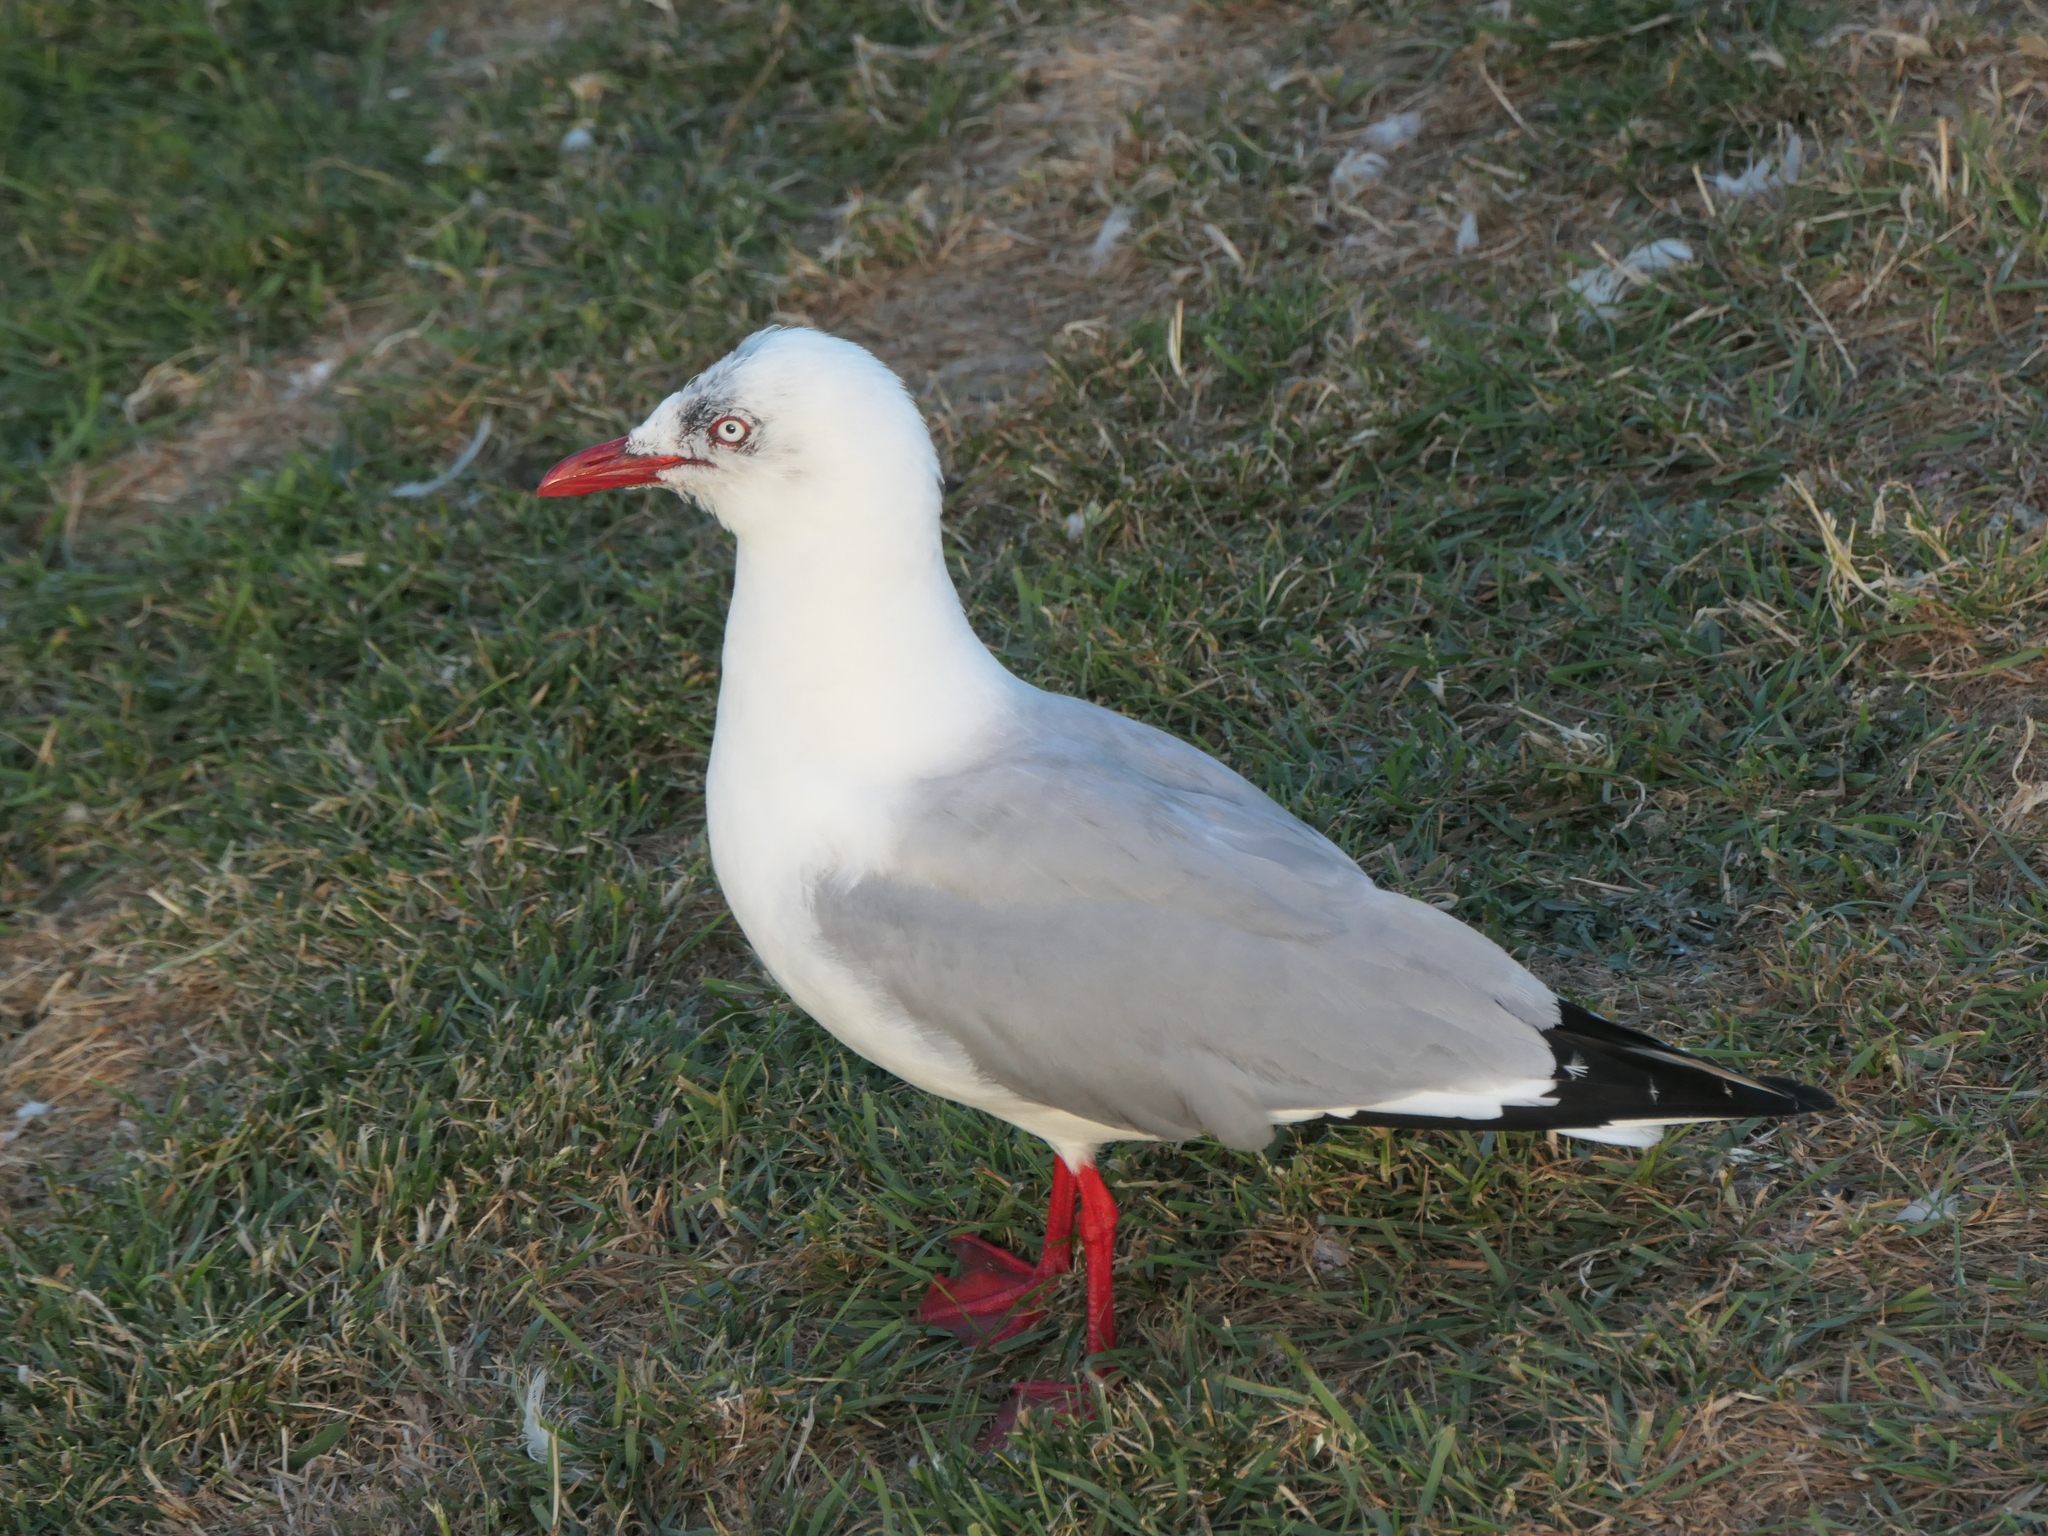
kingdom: Animalia
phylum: Chordata
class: Aves
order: Charadriiformes
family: Laridae
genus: Chroicocephalus
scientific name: Chroicocephalus novaehollandiae
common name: Silver gull
